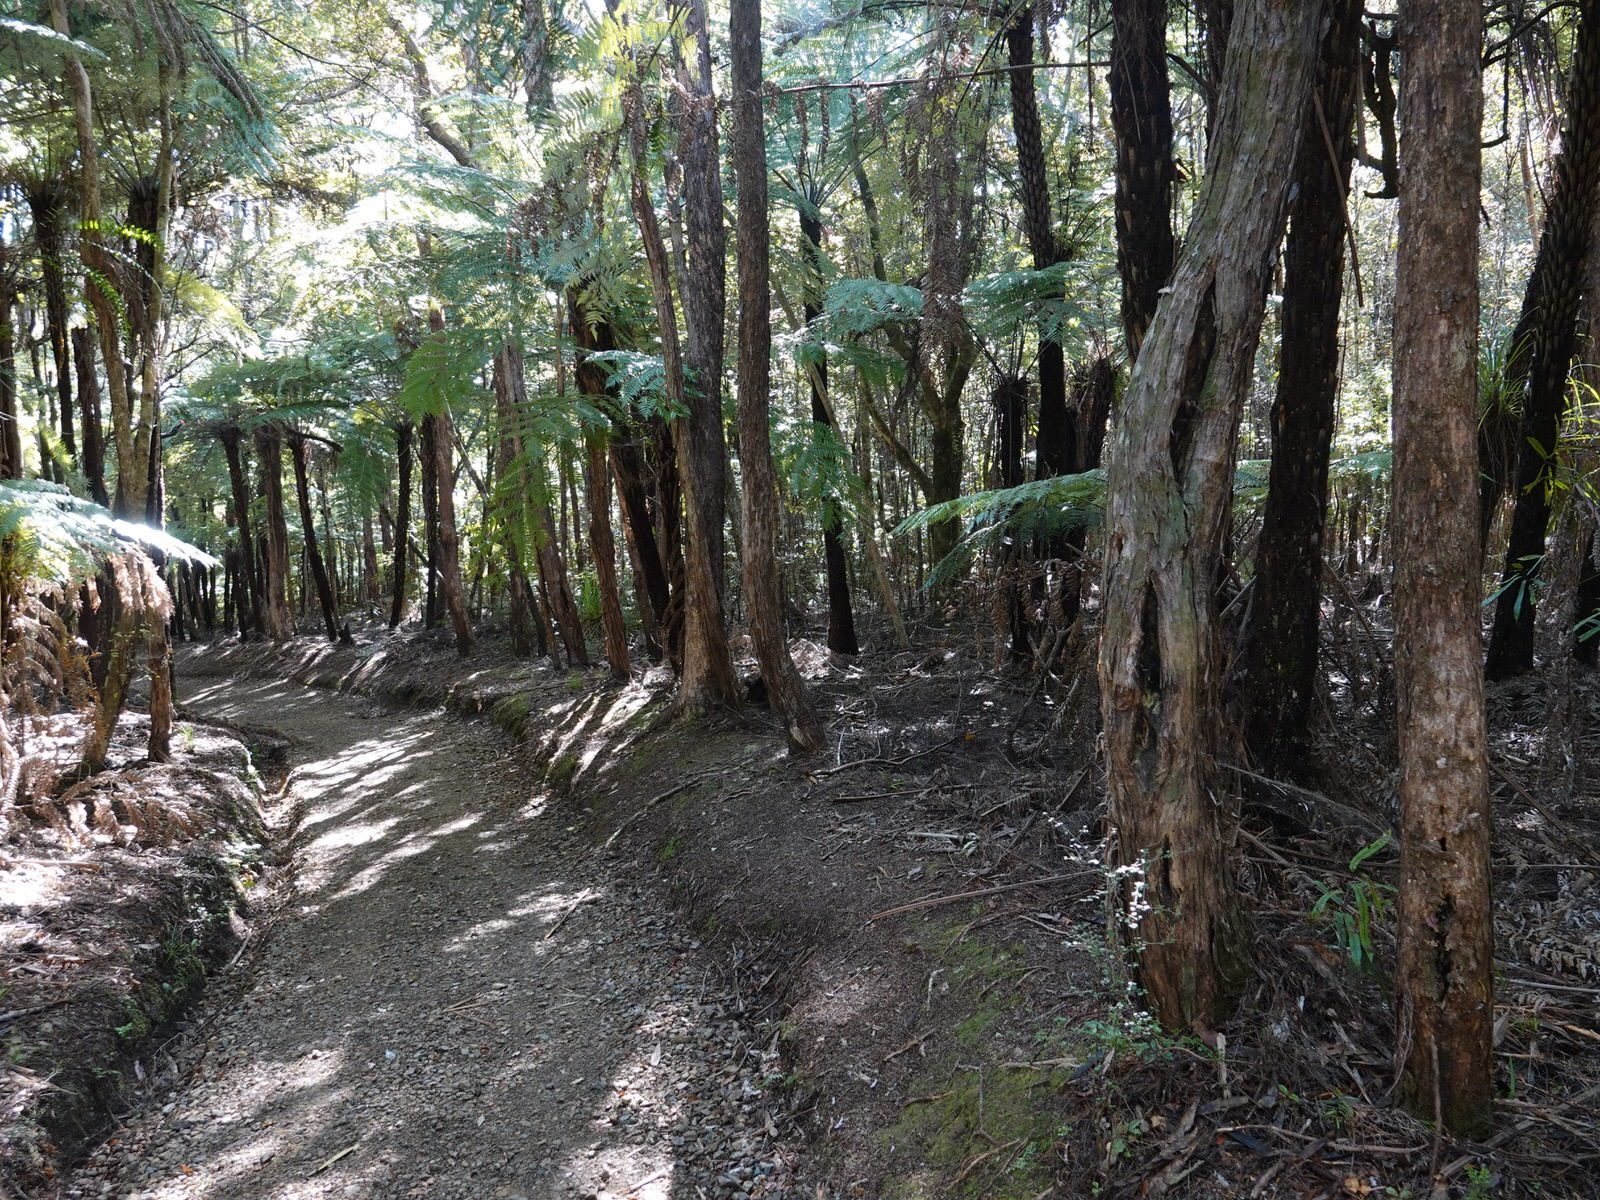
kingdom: Plantae
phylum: Tracheophyta
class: Magnoliopsida
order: Myrtales
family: Myrtaceae
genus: Kunzea
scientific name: Kunzea robusta
